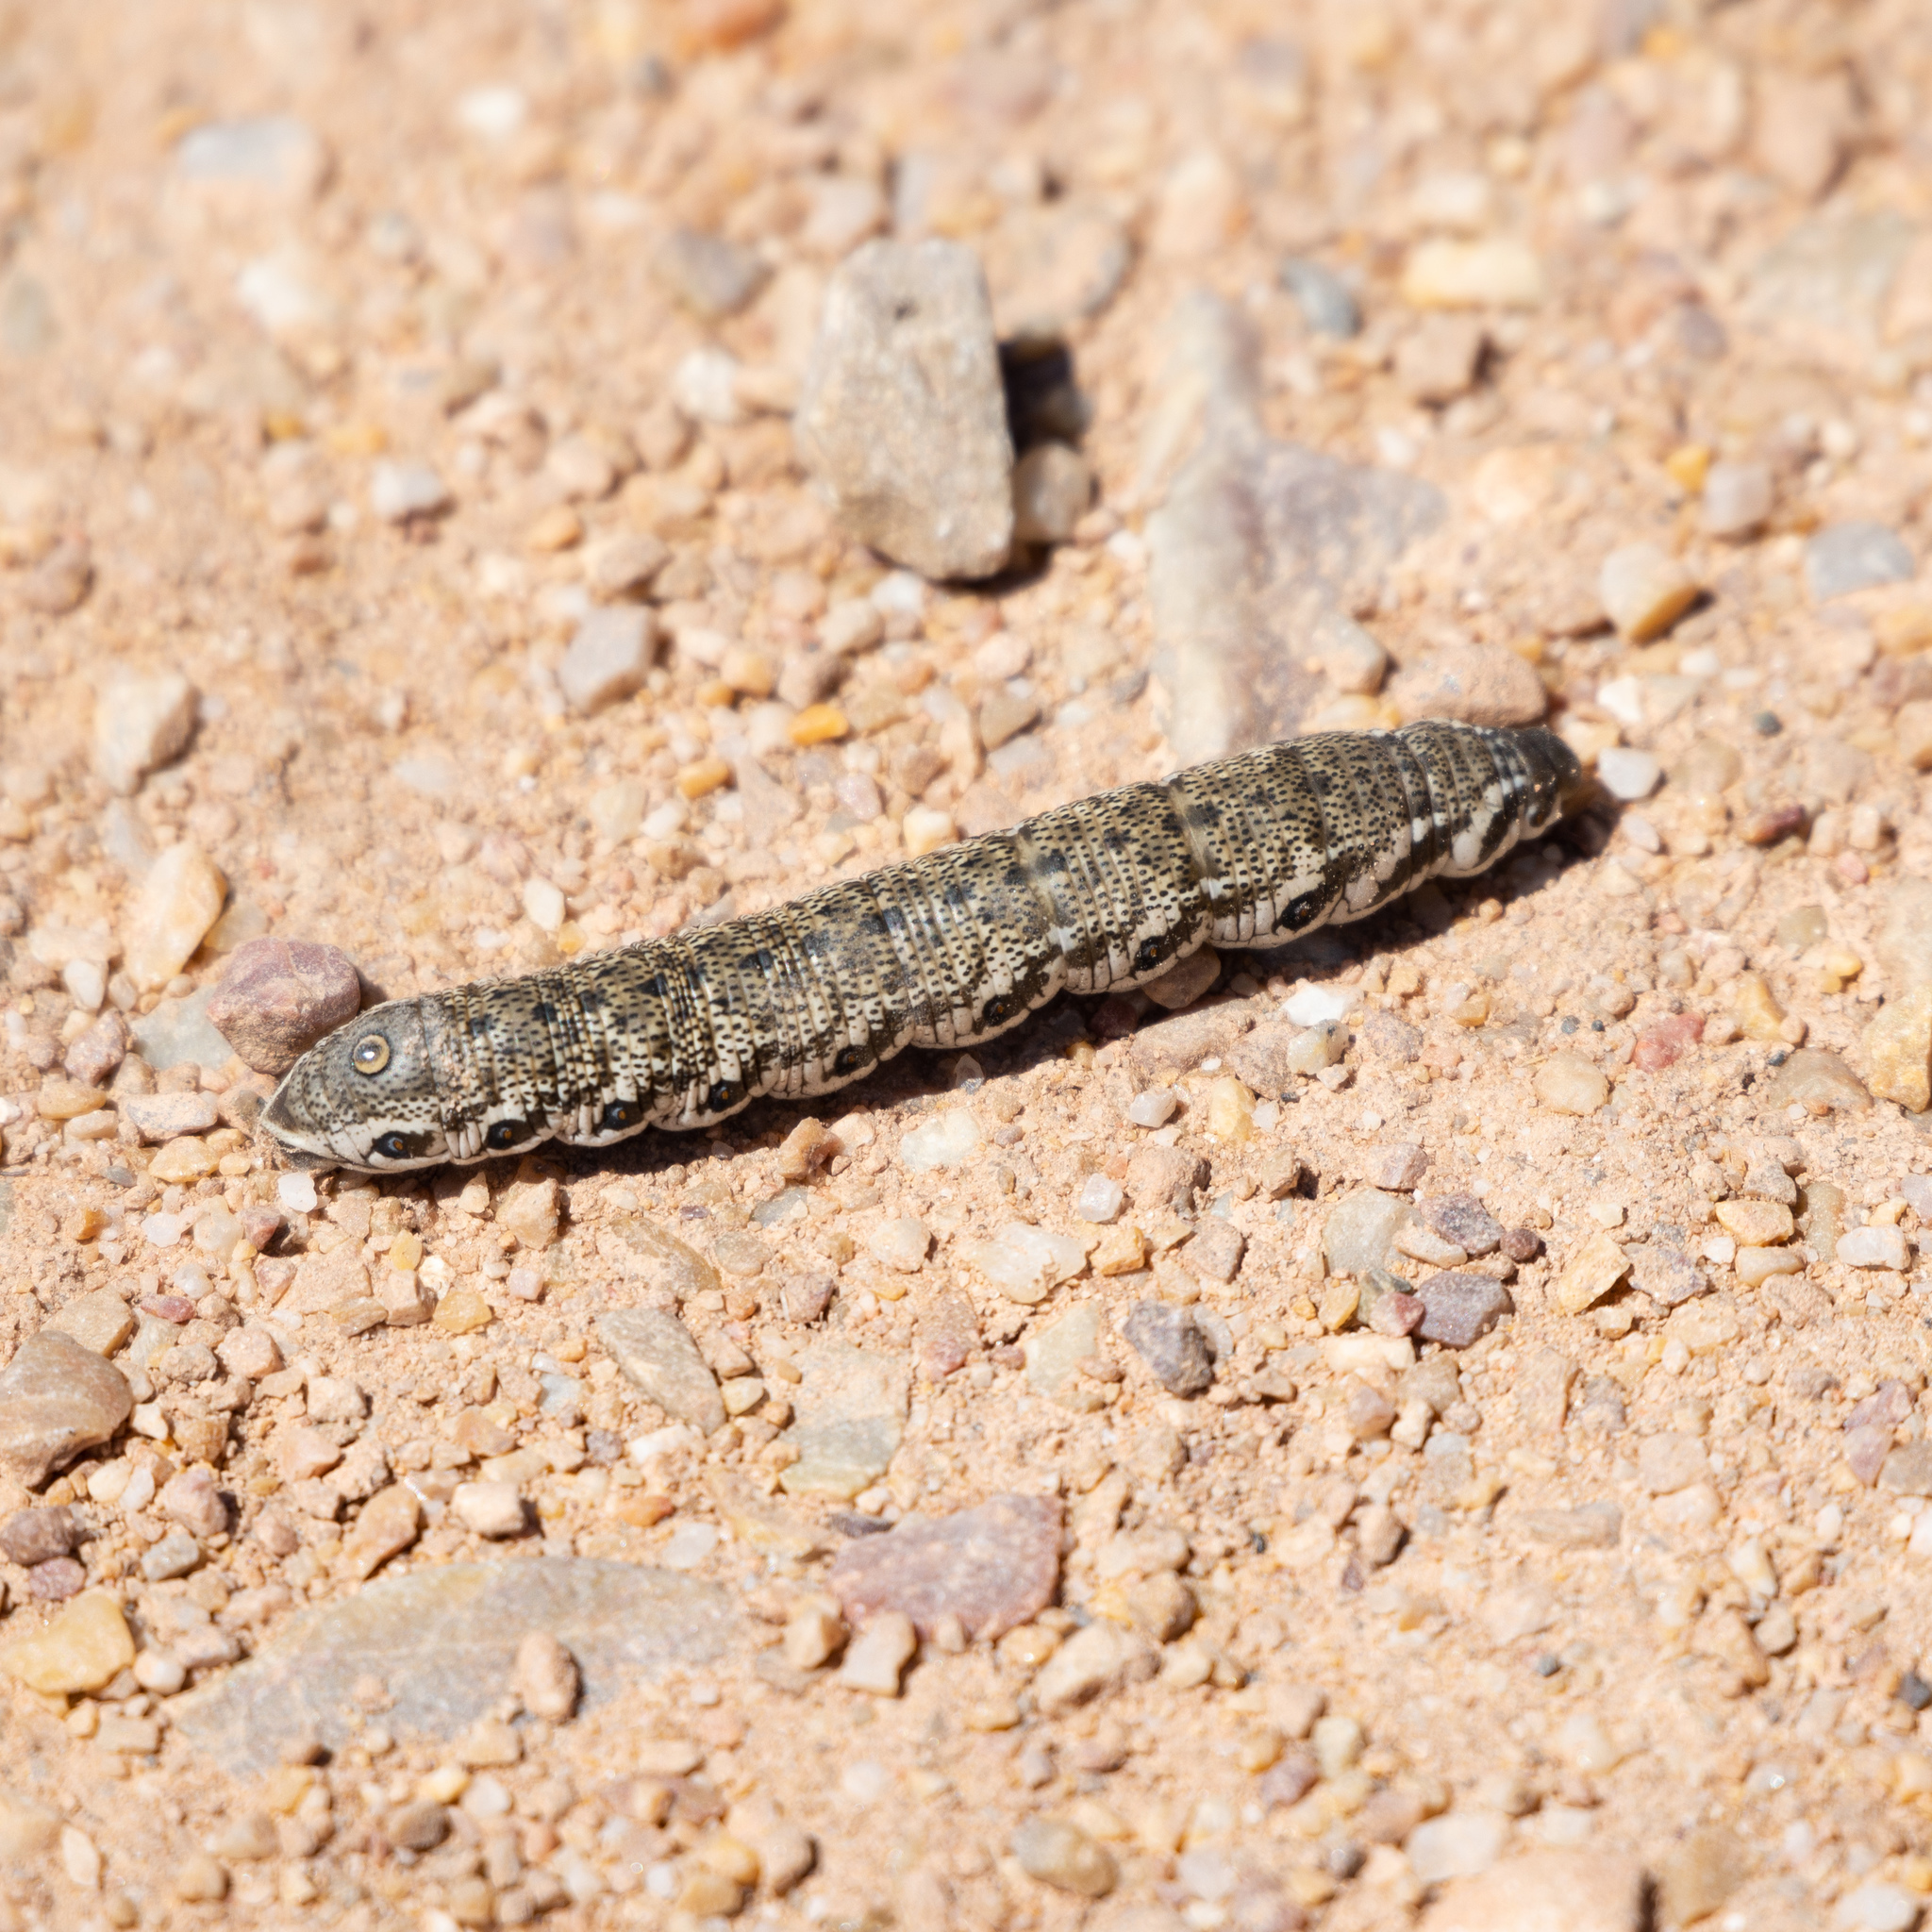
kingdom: Animalia
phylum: Arthropoda
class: Insecta
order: Lepidoptera
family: Sphingidae
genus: Proserpinus
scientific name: Proserpinus proserpina
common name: Willowherb hawkmoth
